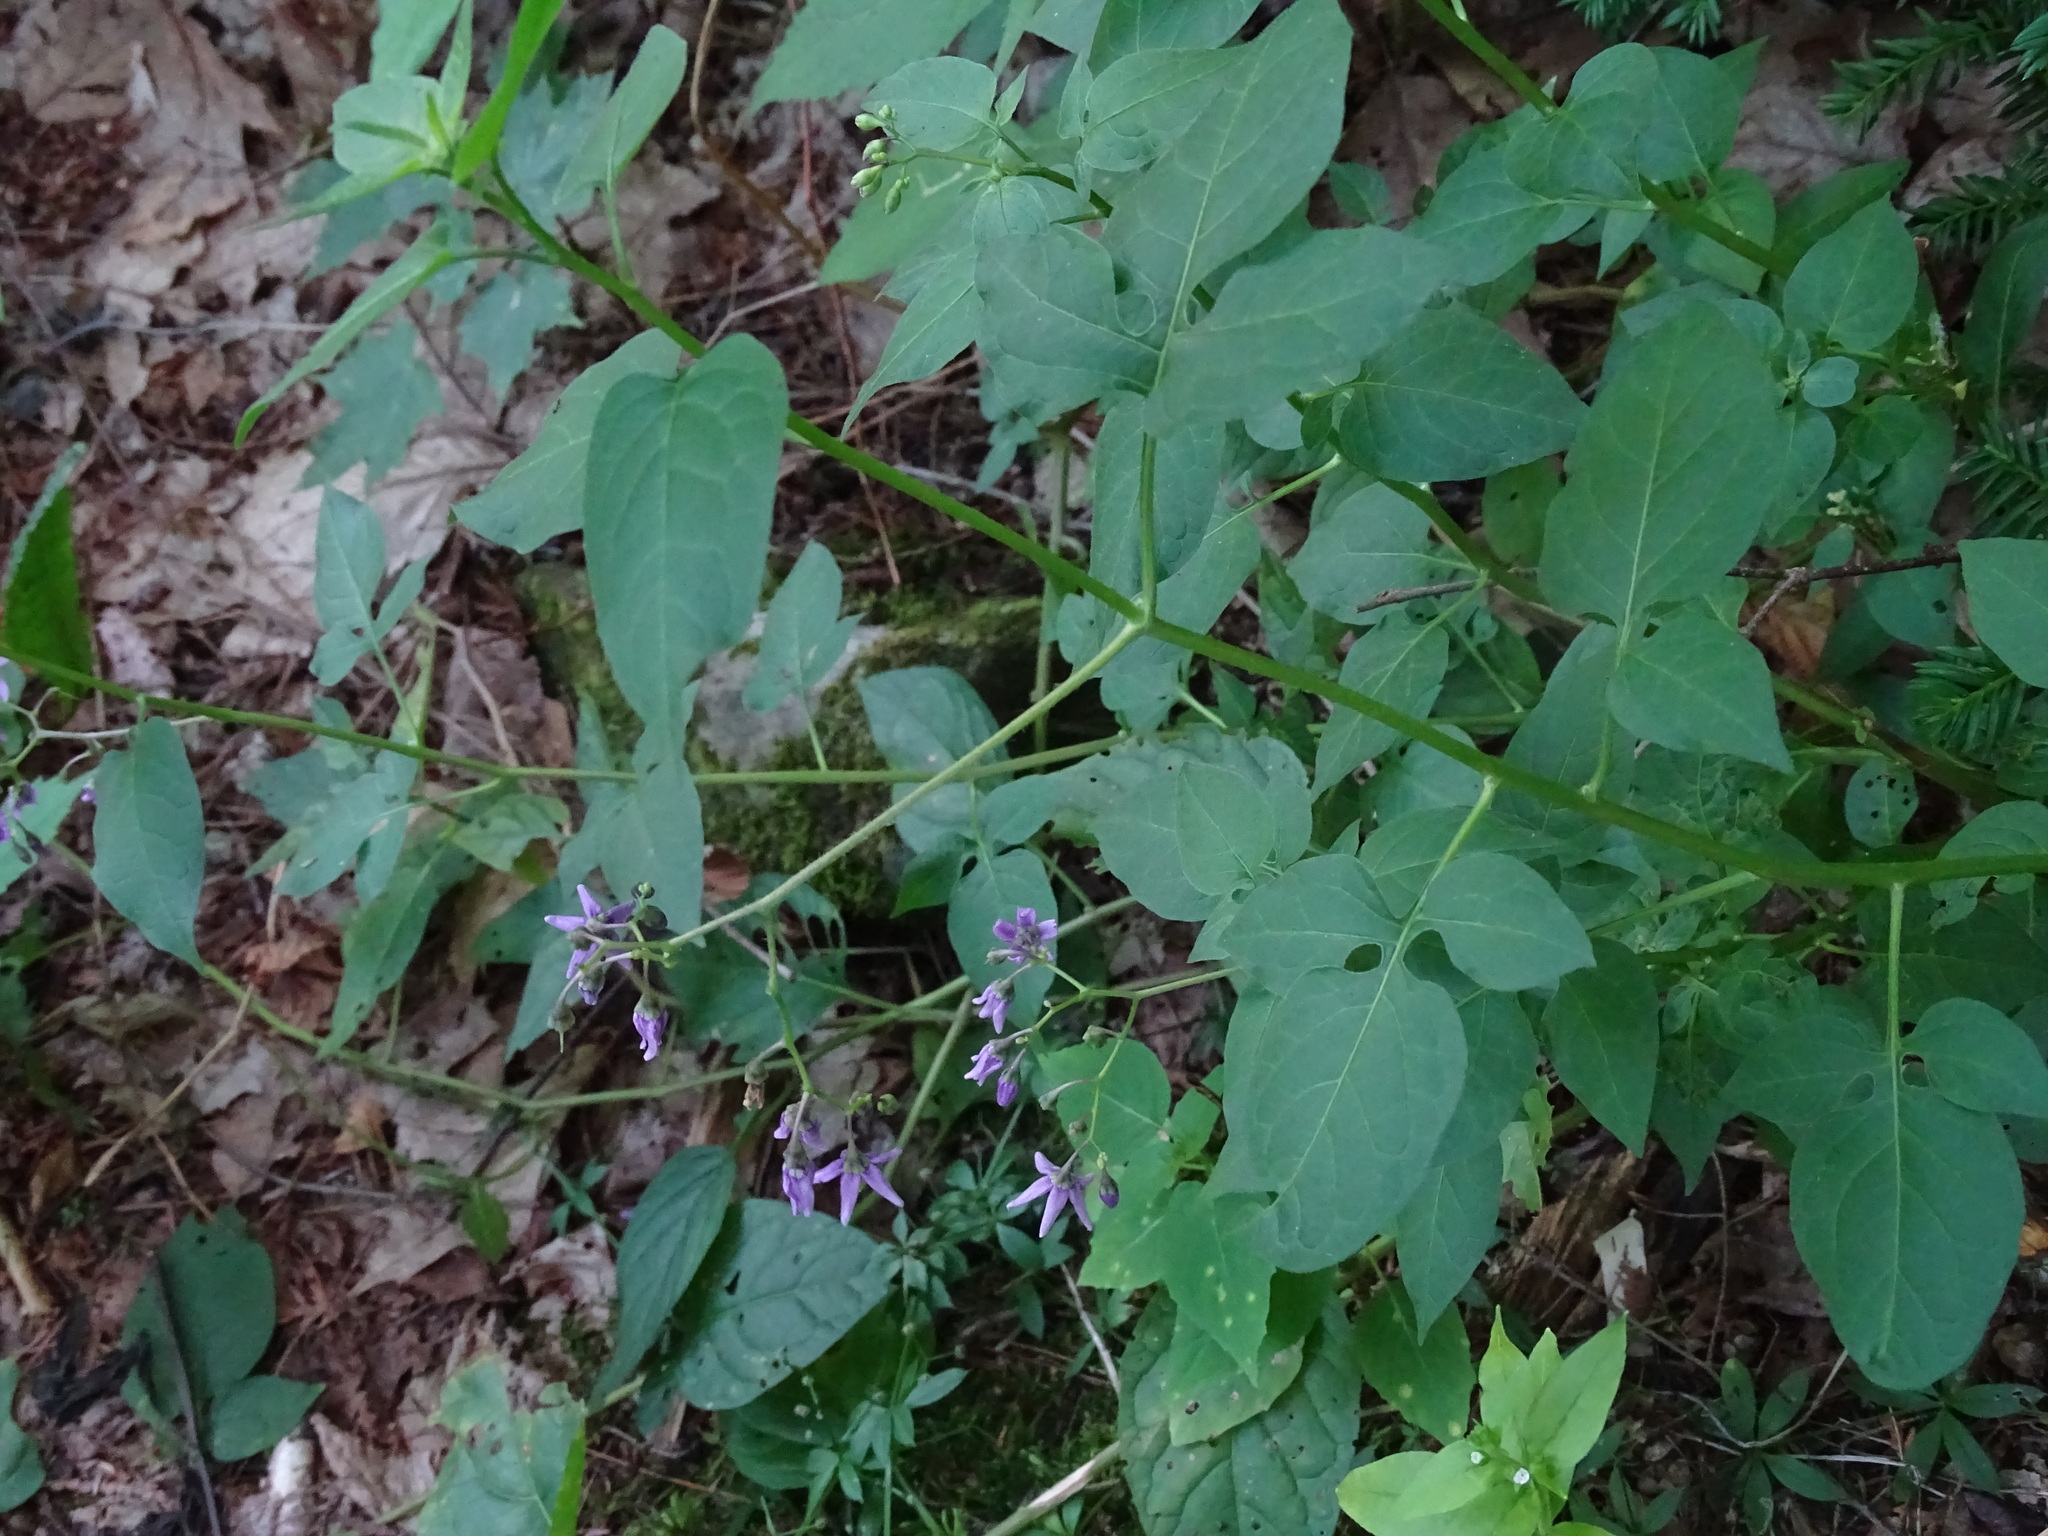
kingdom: Plantae
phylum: Tracheophyta
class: Magnoliopsida
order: Solanales
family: Solanaceae
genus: Solanum
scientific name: Solanum dulcamara
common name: Climbing nightshade
